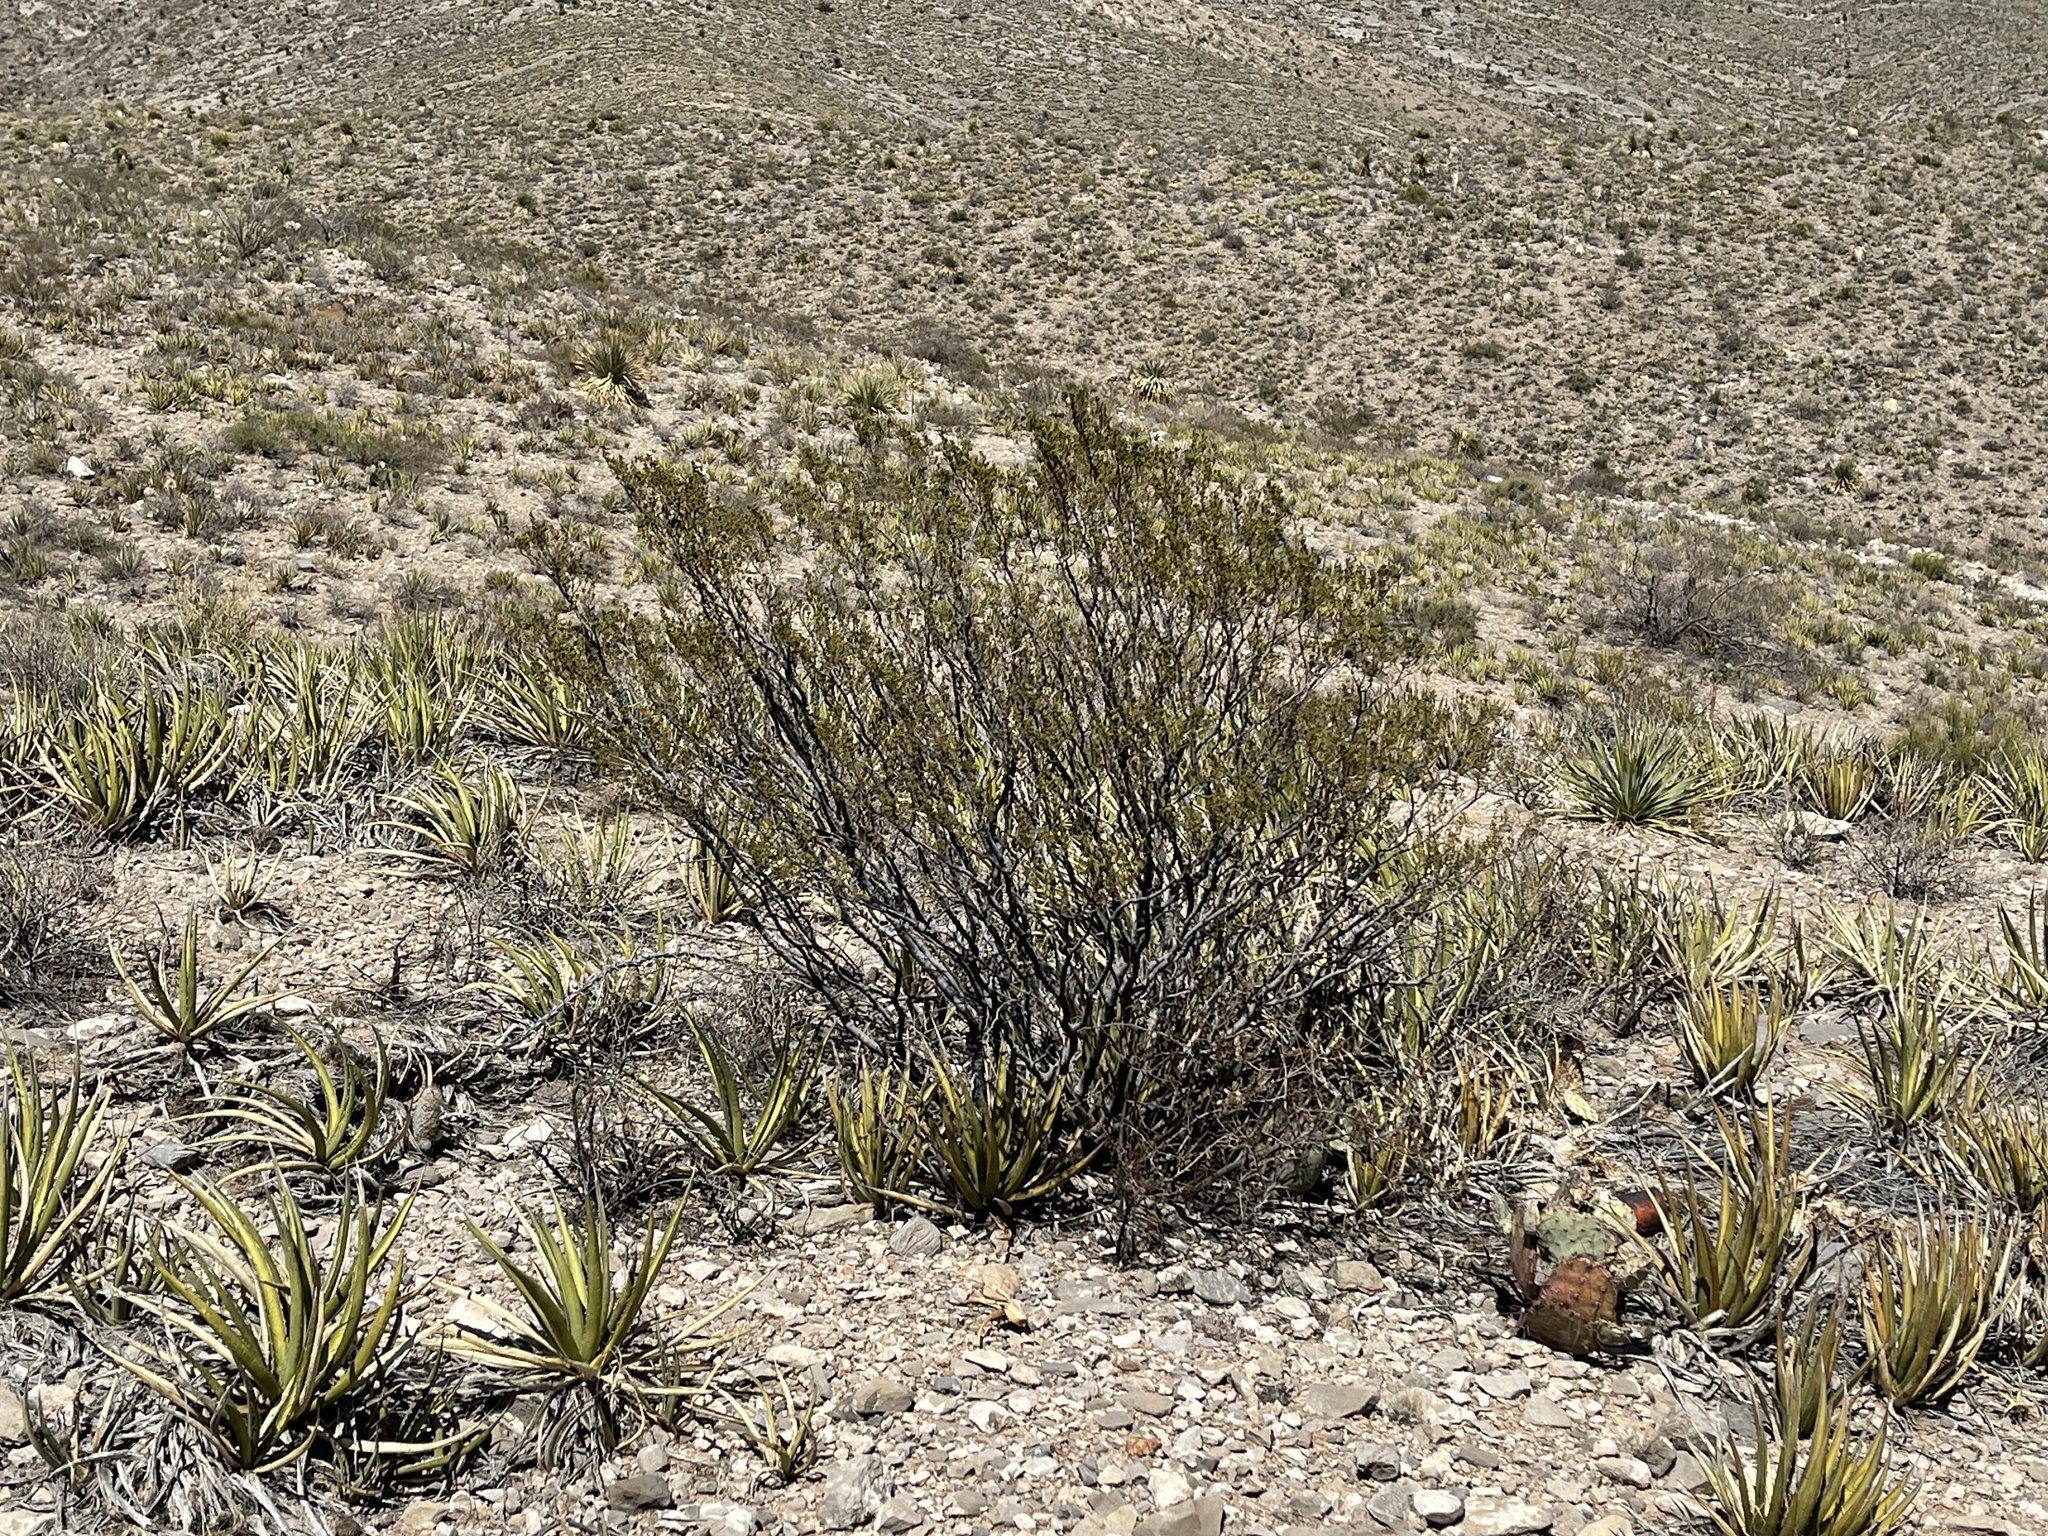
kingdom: Plantae
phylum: Tracheophyta
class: Magnoliopsida
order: Zygophyllales
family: Zygophyllaceae
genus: Larrea
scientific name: Larrea tridentata
